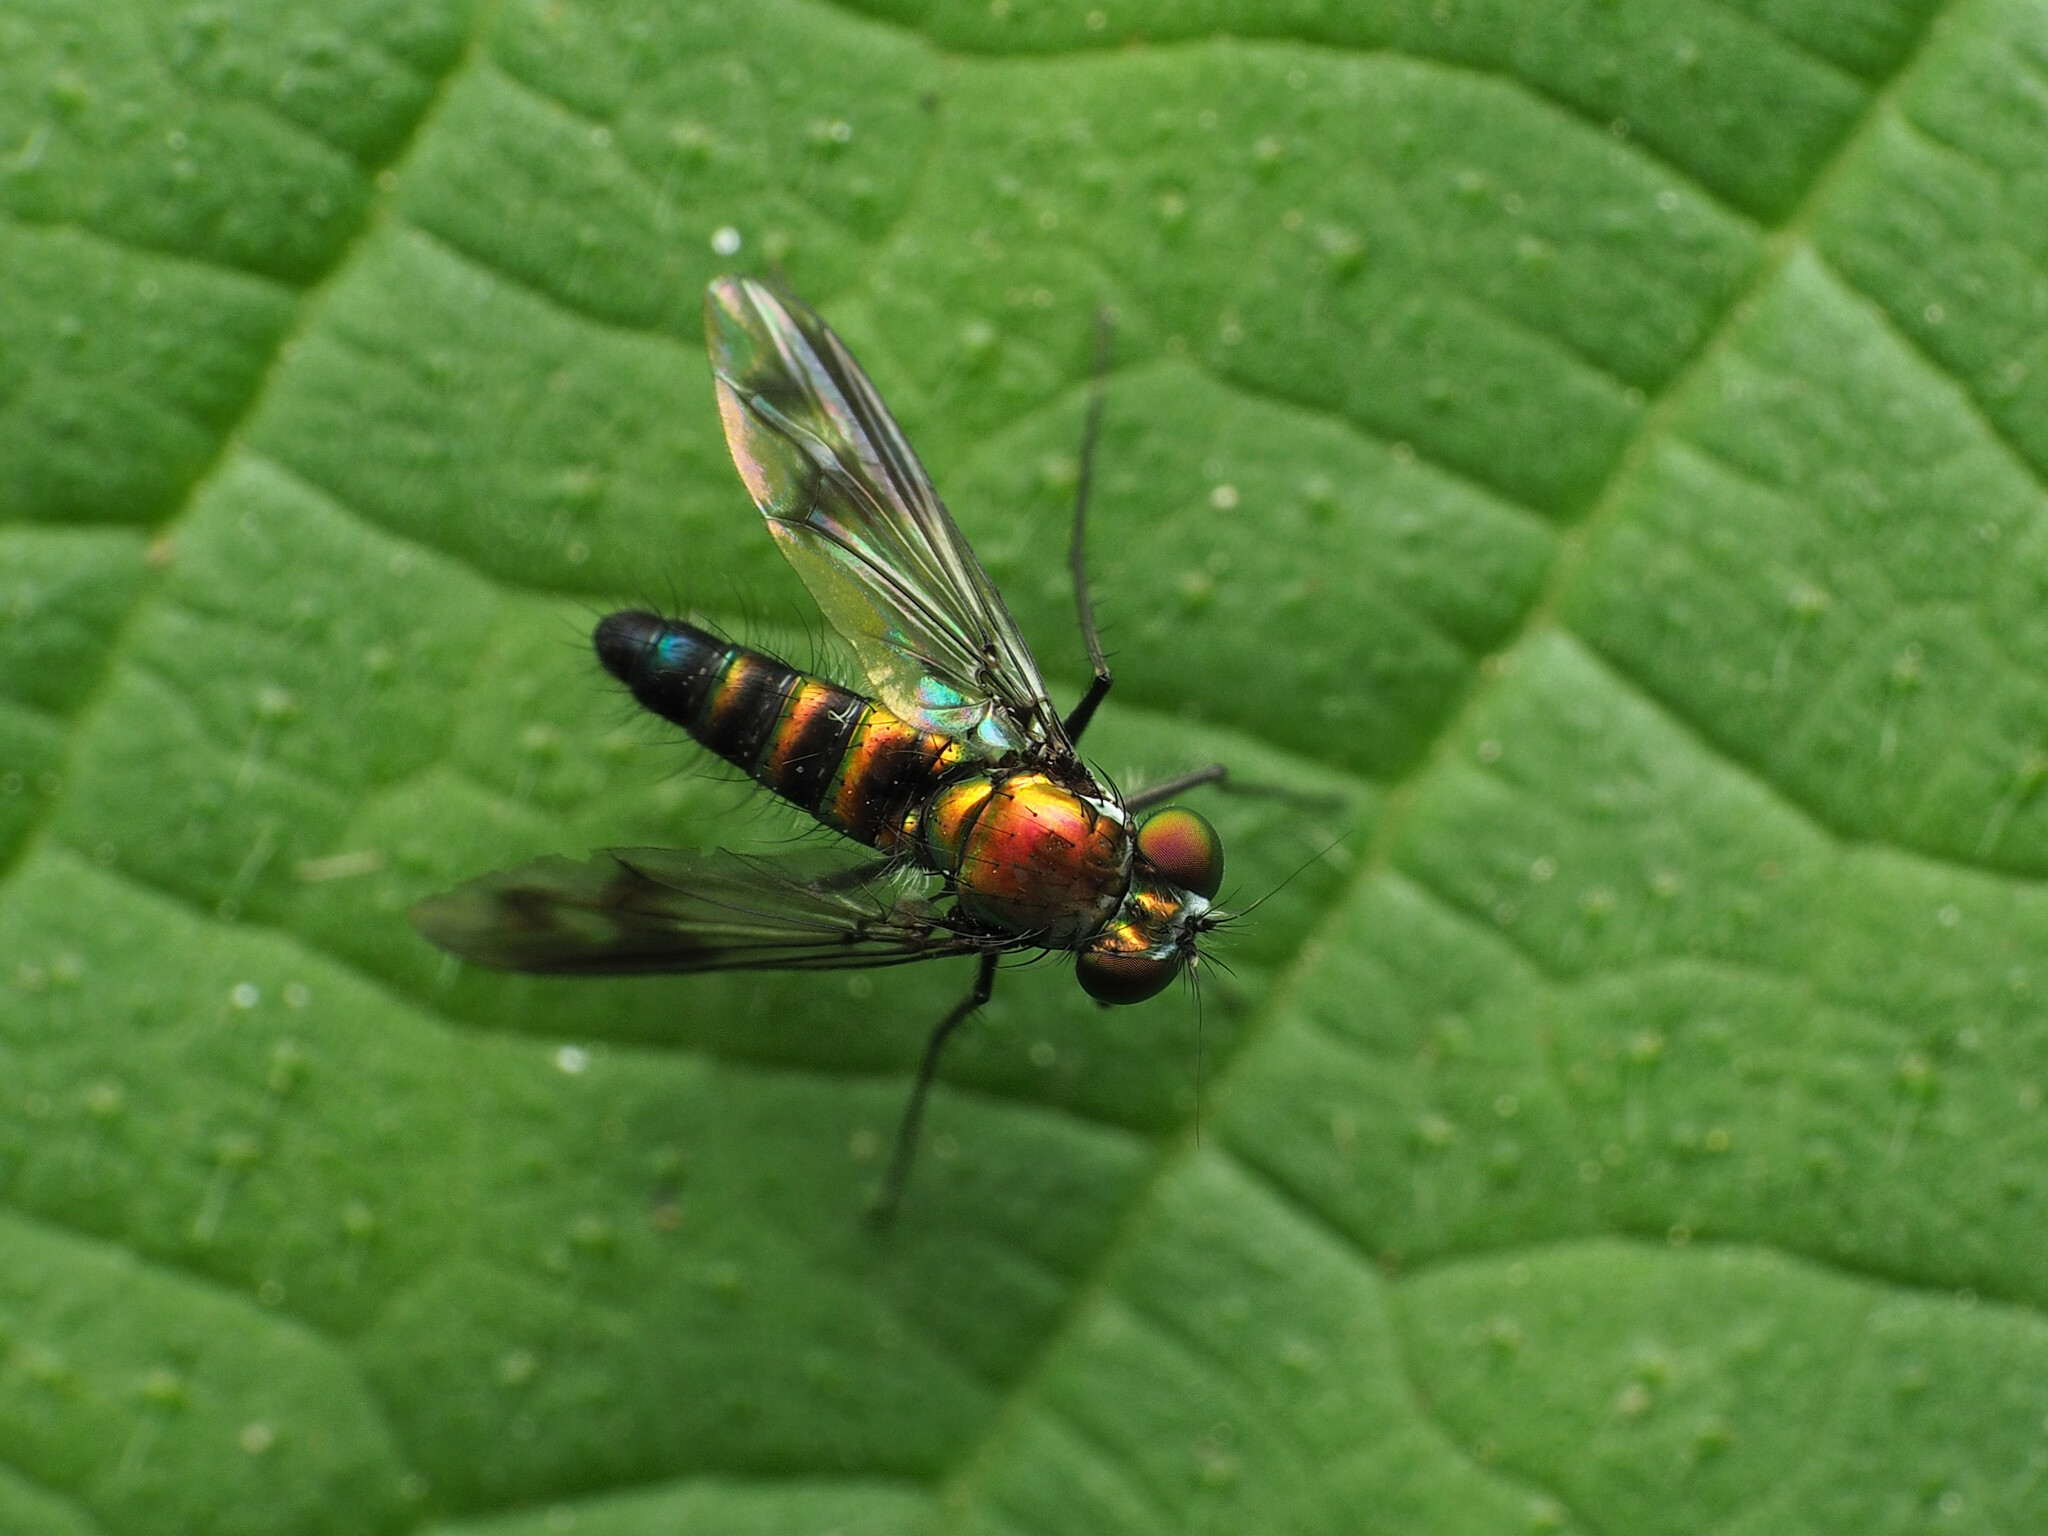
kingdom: Animalia
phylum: Arthropoda
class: Insecta
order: Diptera
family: Dolichopodidae
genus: Condylostylus
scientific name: Condylostylus patibulatus
